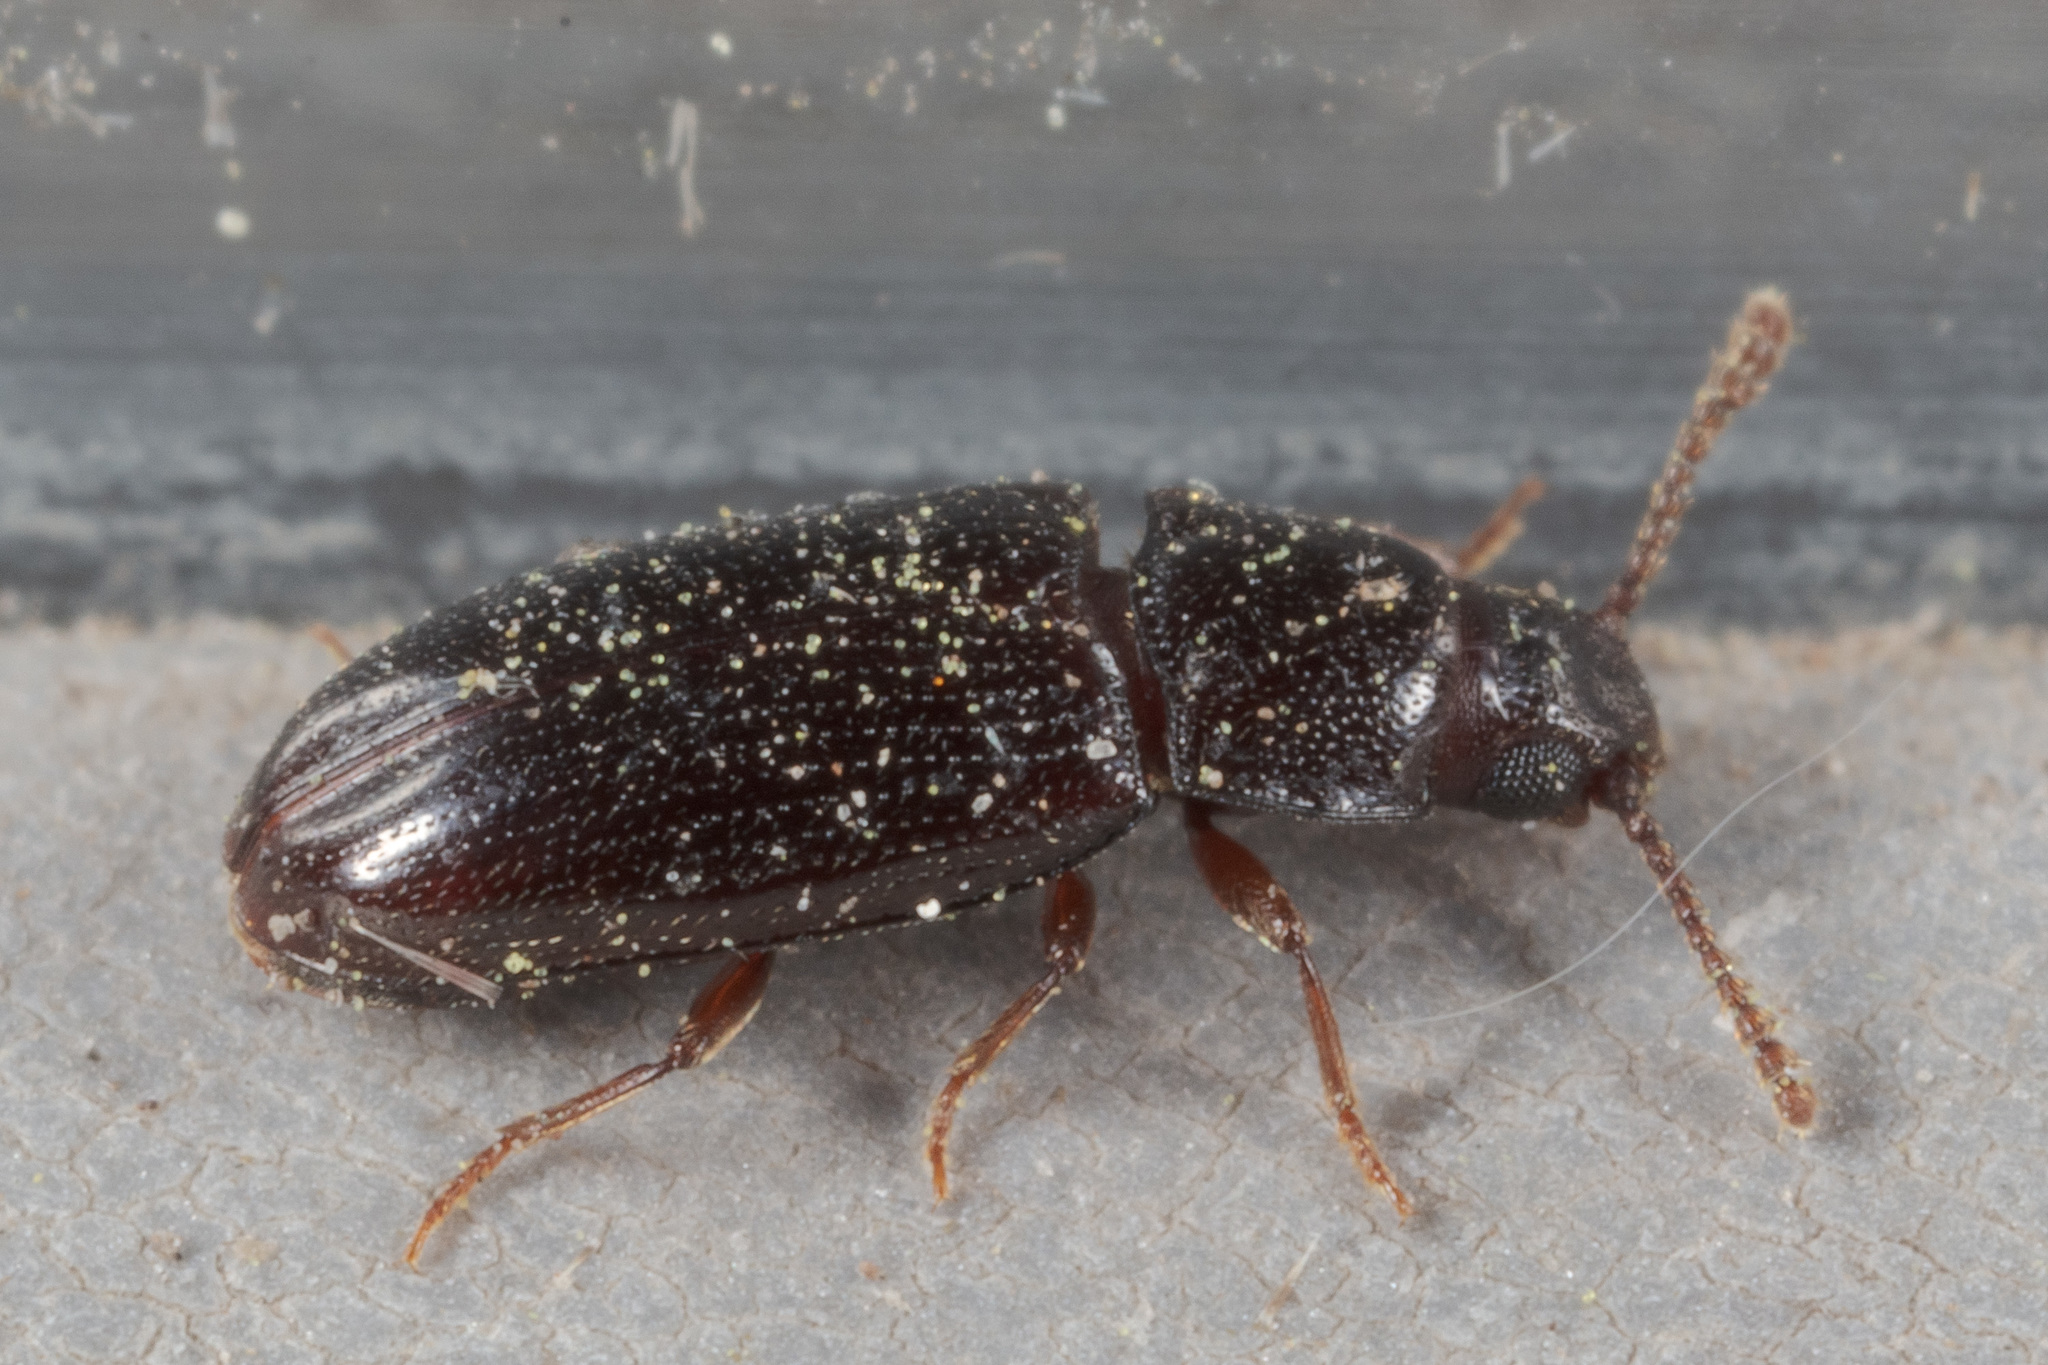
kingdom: Animalia
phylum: Arthropoda
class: Insecta
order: Coleoptera
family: Erotylidae
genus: Pharaxonotha
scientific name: Pharaxonotha kirschii
